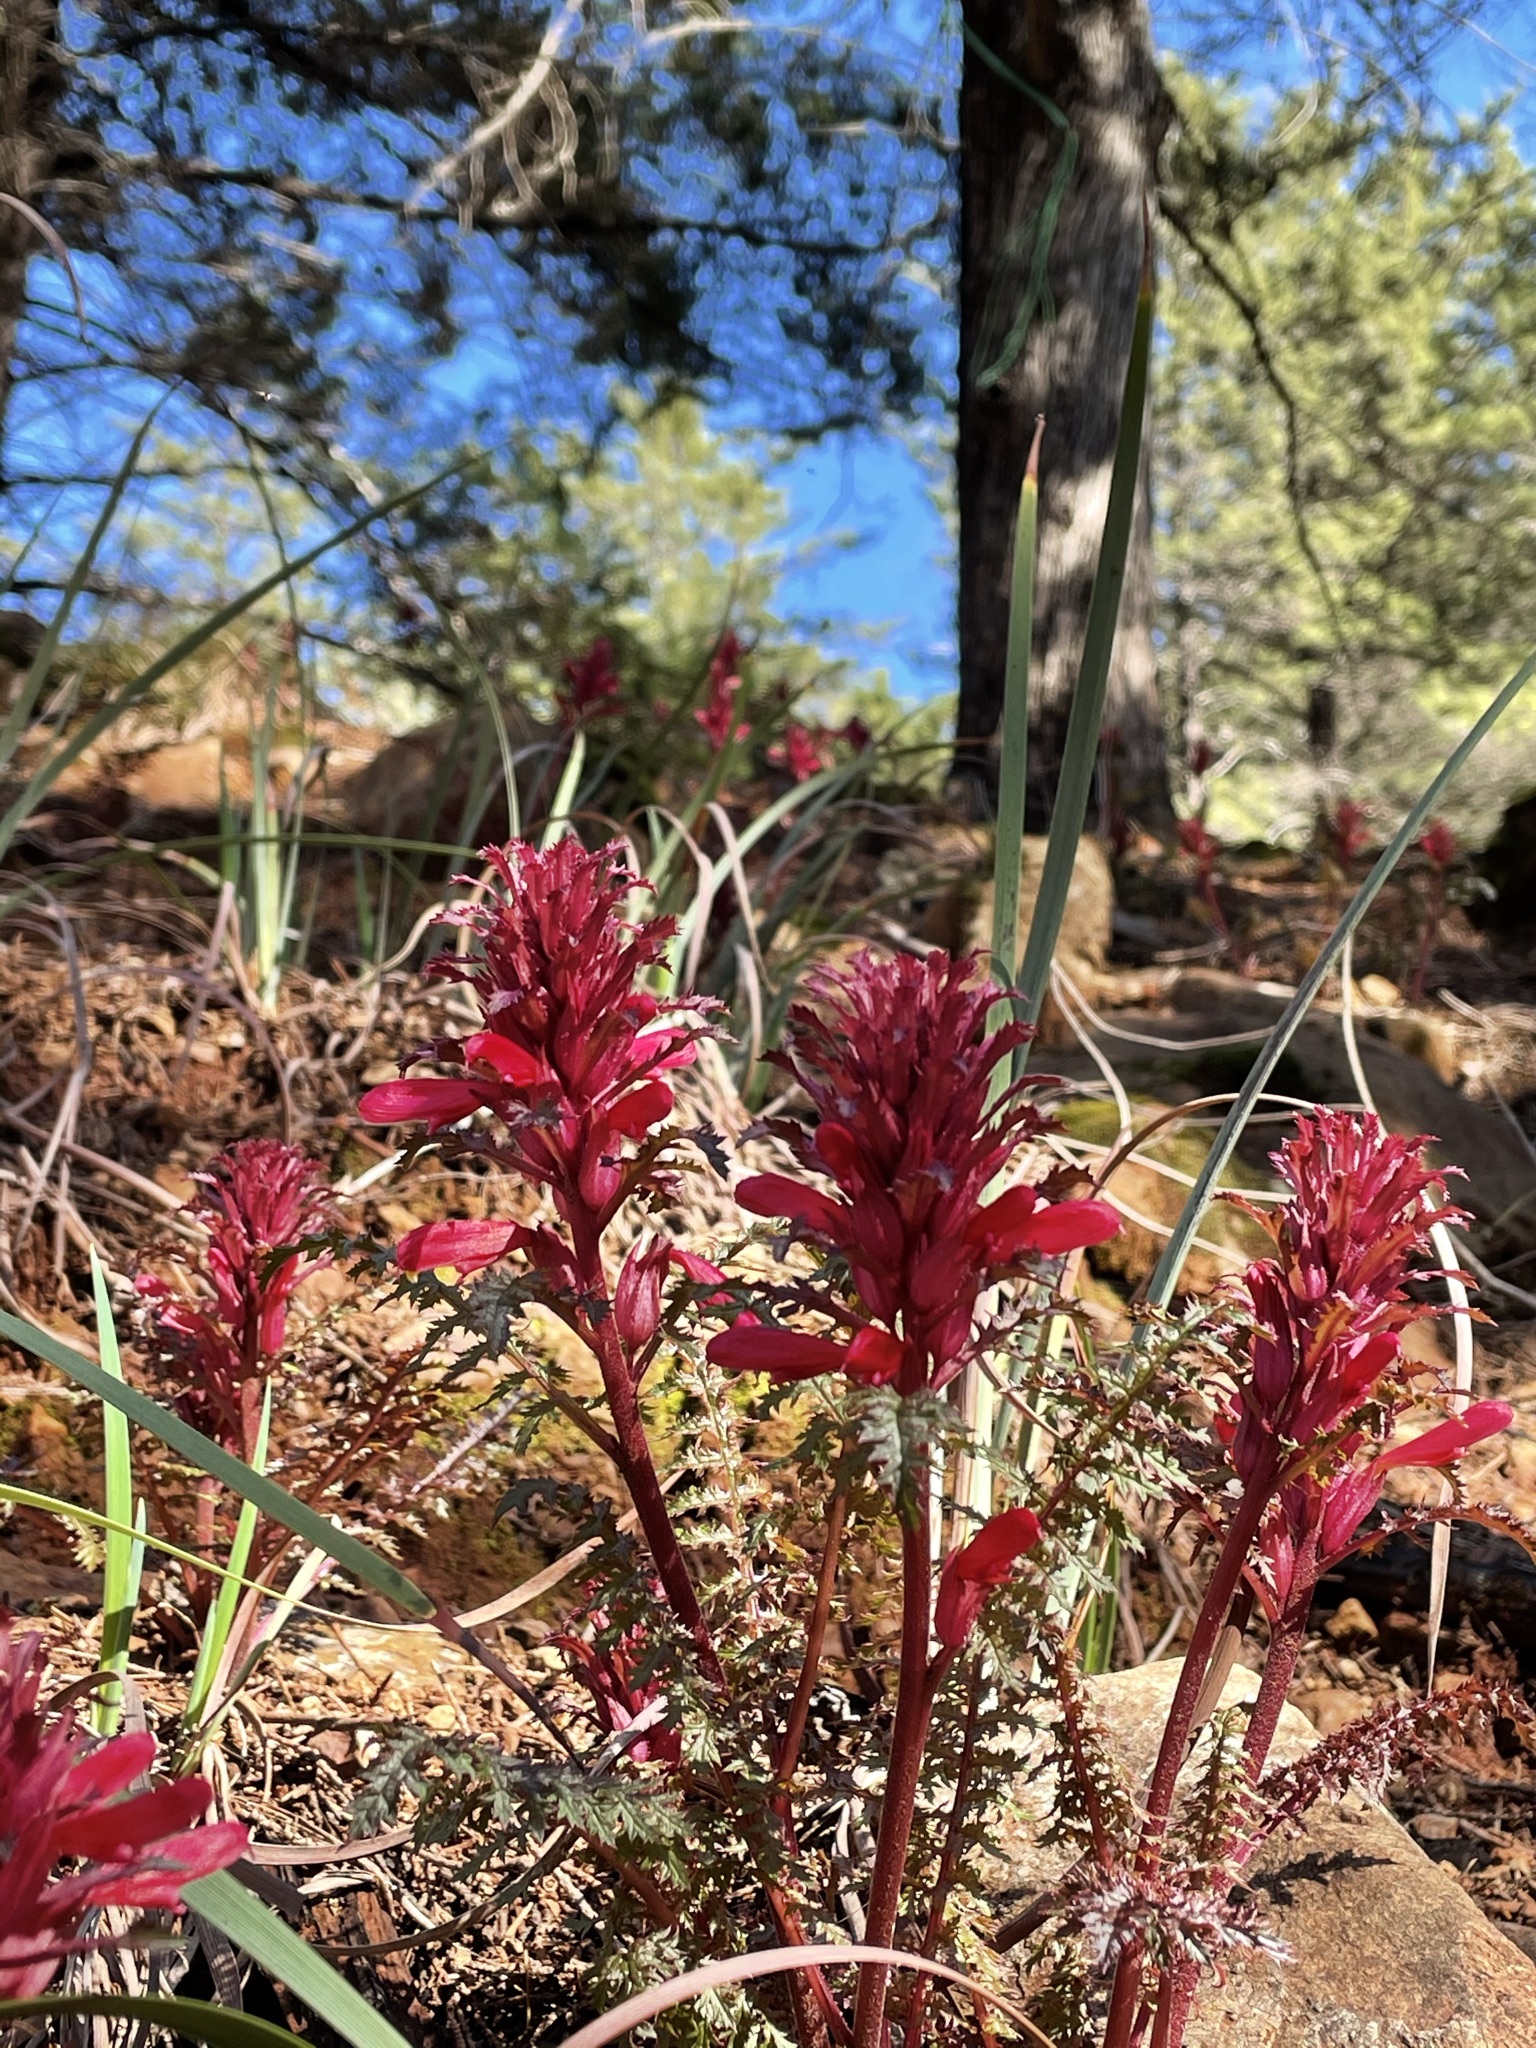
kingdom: Plantae
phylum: Tracheophyta
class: Magnoliopsida
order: Lamiales
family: Orobanchaceae
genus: Pedicularis
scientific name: Pedicularis densiflora
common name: Indian warrior
